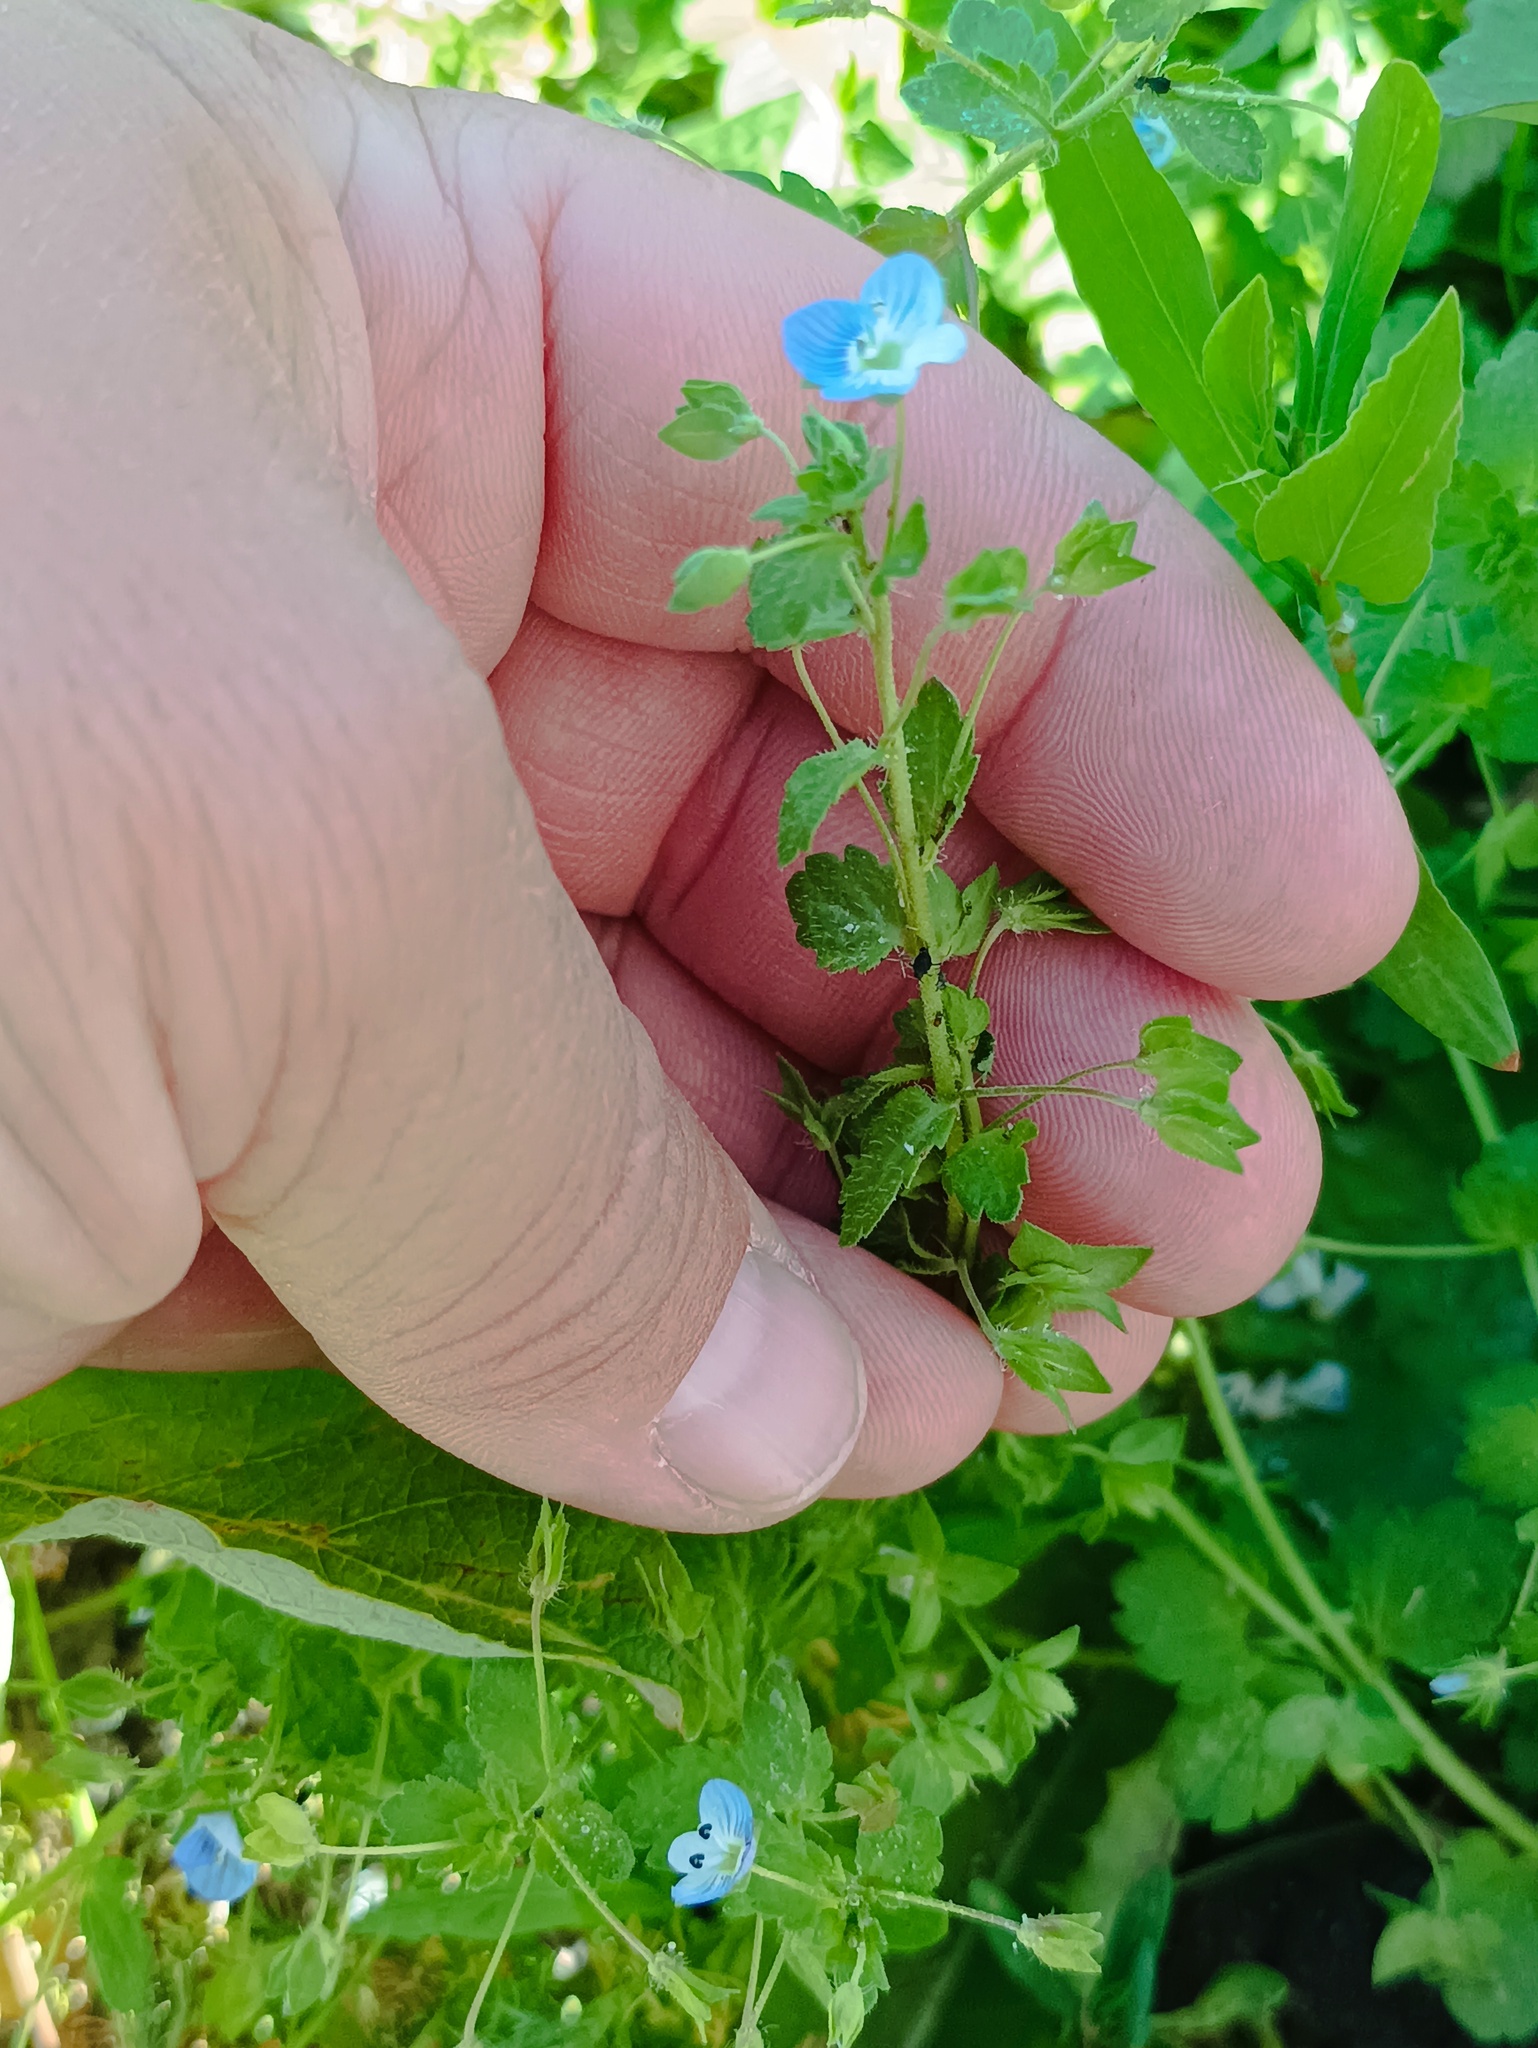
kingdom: Plantae
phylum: Tracheophyta
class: Magnoliopsida
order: Lamiales
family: Plantaginaceae
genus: Veronica
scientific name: Veronica persica
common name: Common field-speedwell
